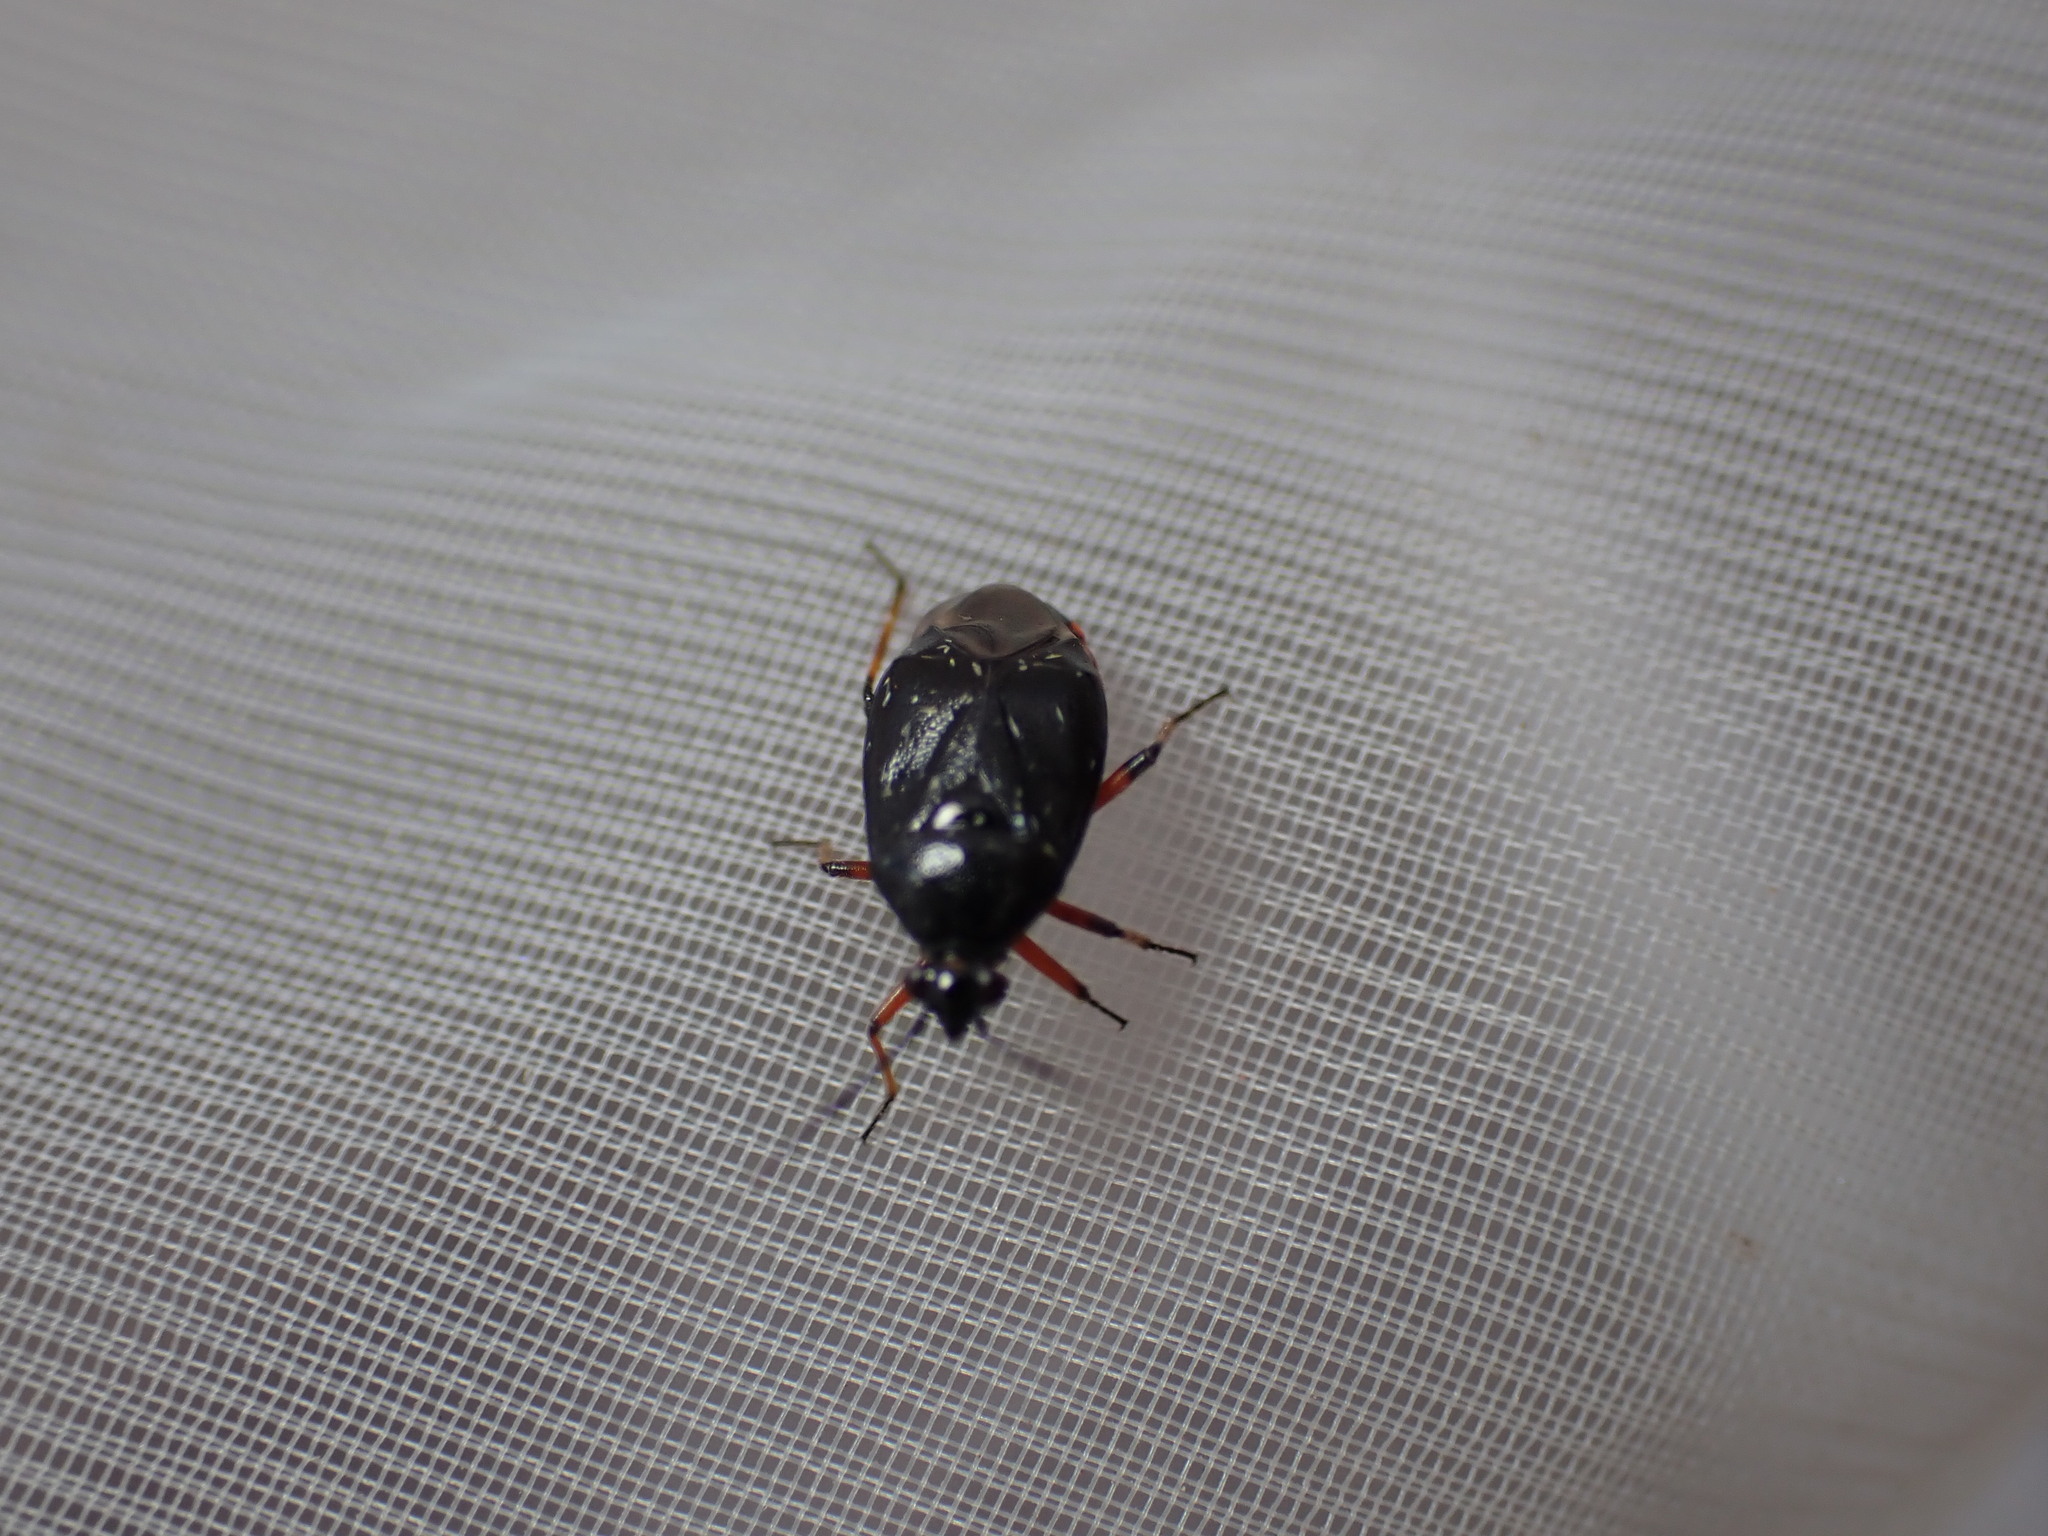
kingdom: Animalia
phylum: Arthropoda
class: Insecta
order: Hemiptera
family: Miridae
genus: Deraeocoris
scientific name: Deraeocoris ribauti
